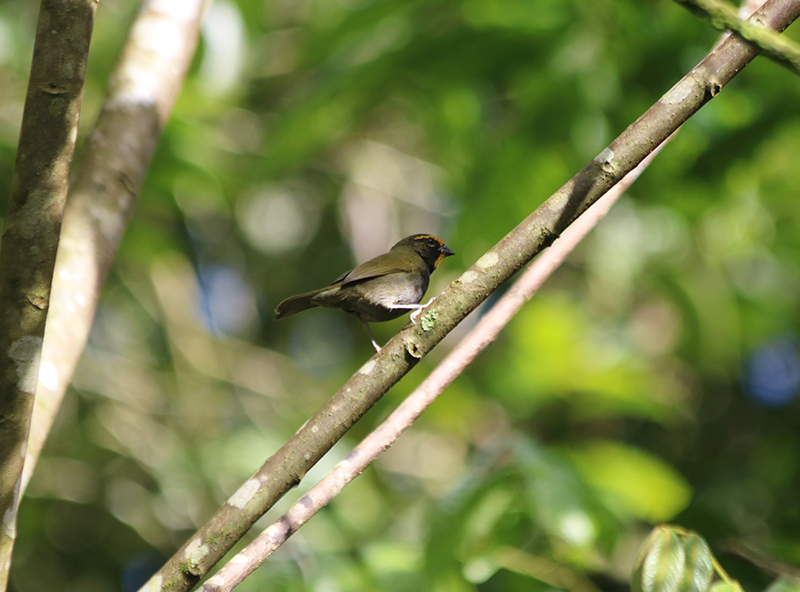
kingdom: Animalia
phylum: Chordata
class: Aves
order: Passeriformes
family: Thraupidae
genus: Tiaris
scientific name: Tiaris olivaceus
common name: Yellow-faced grassquit
